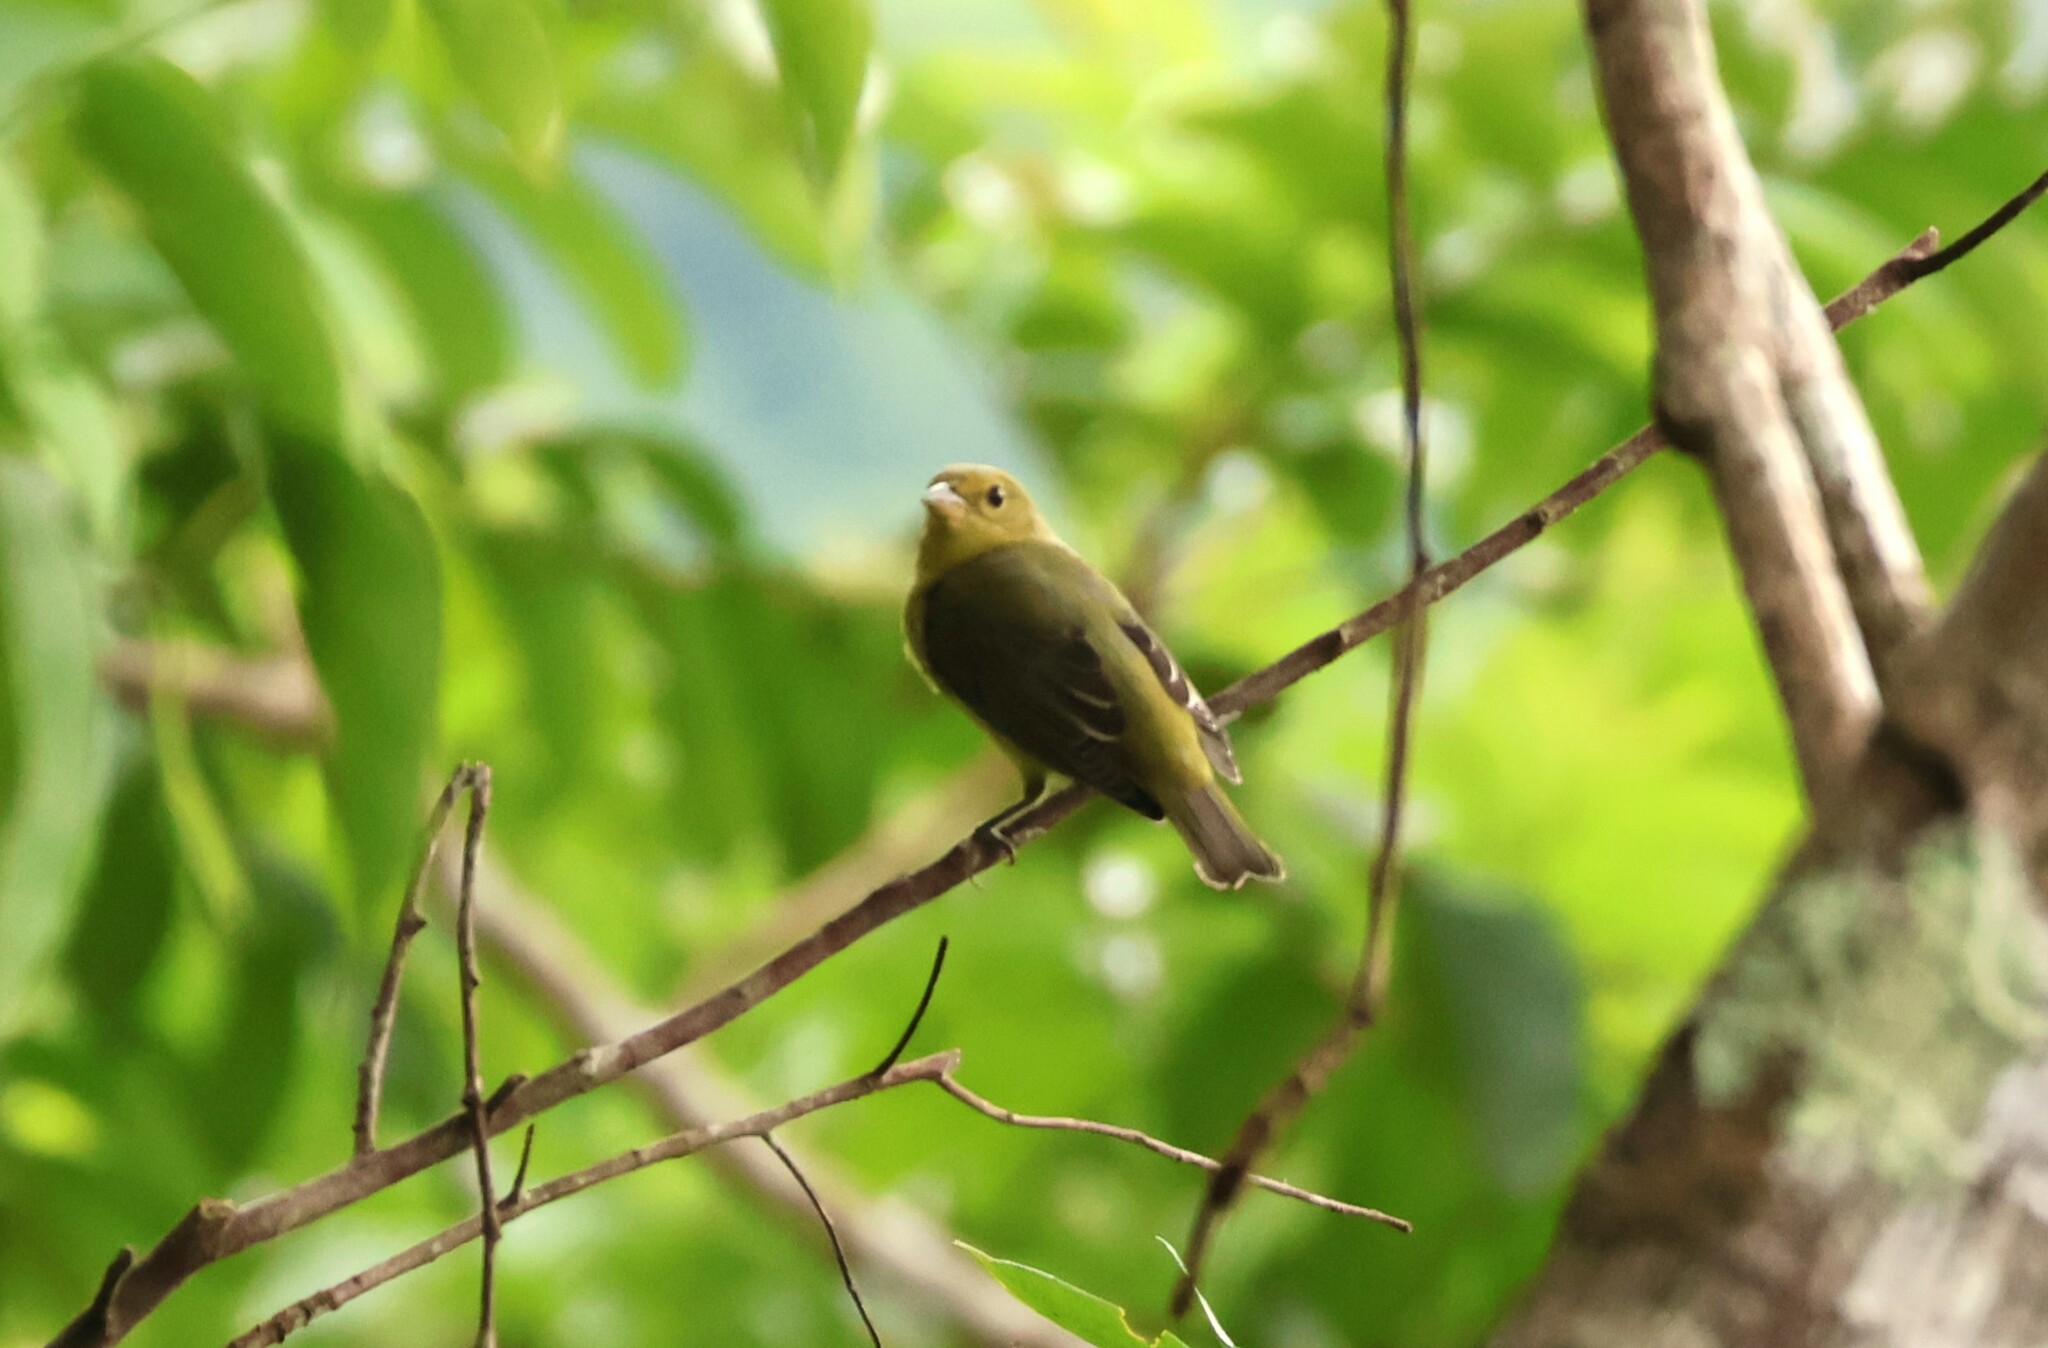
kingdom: Animalia
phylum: Chordata
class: Aves
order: Passeriformes
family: Cardinalidae
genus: Piranga
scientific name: Piranga olivacea
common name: Scarlet tanager
